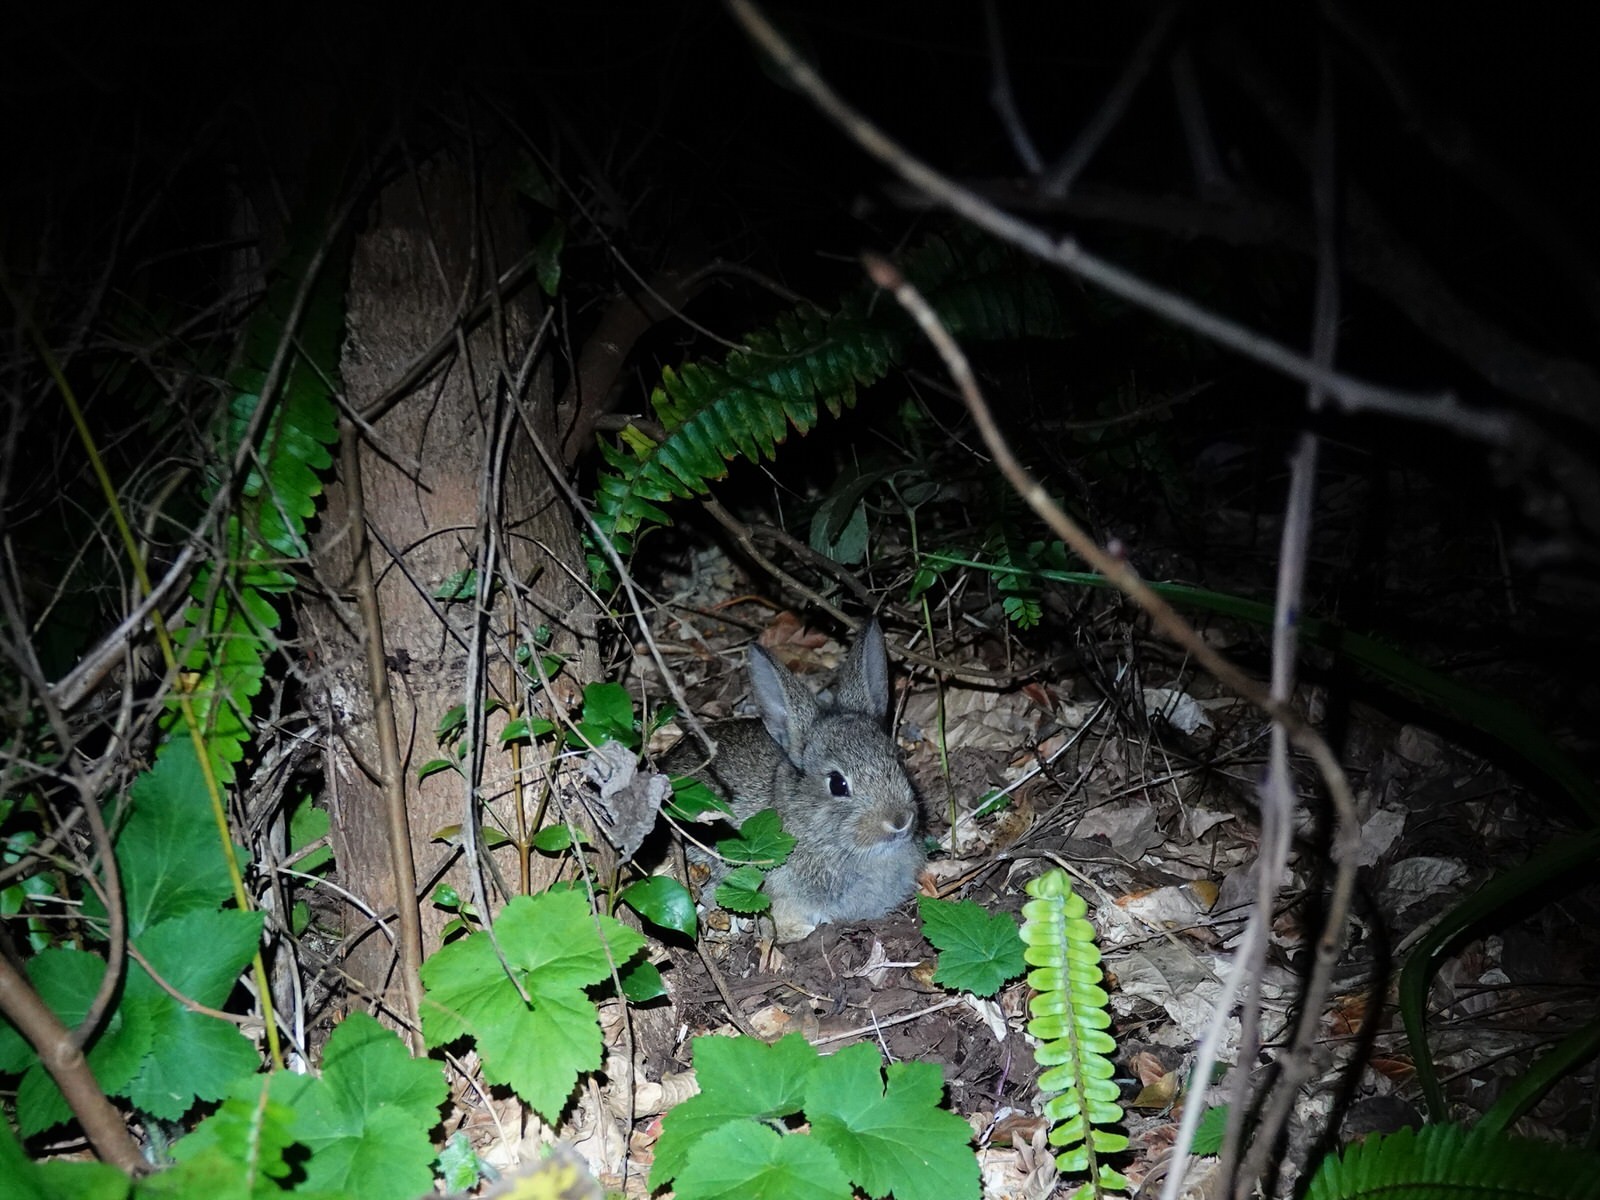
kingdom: Animalia
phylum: Chordata
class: Mammalia
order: Lagomorpha
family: Leporidae
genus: Oryctolagus
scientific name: Oryctolagus cuniculus
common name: European rabbit
